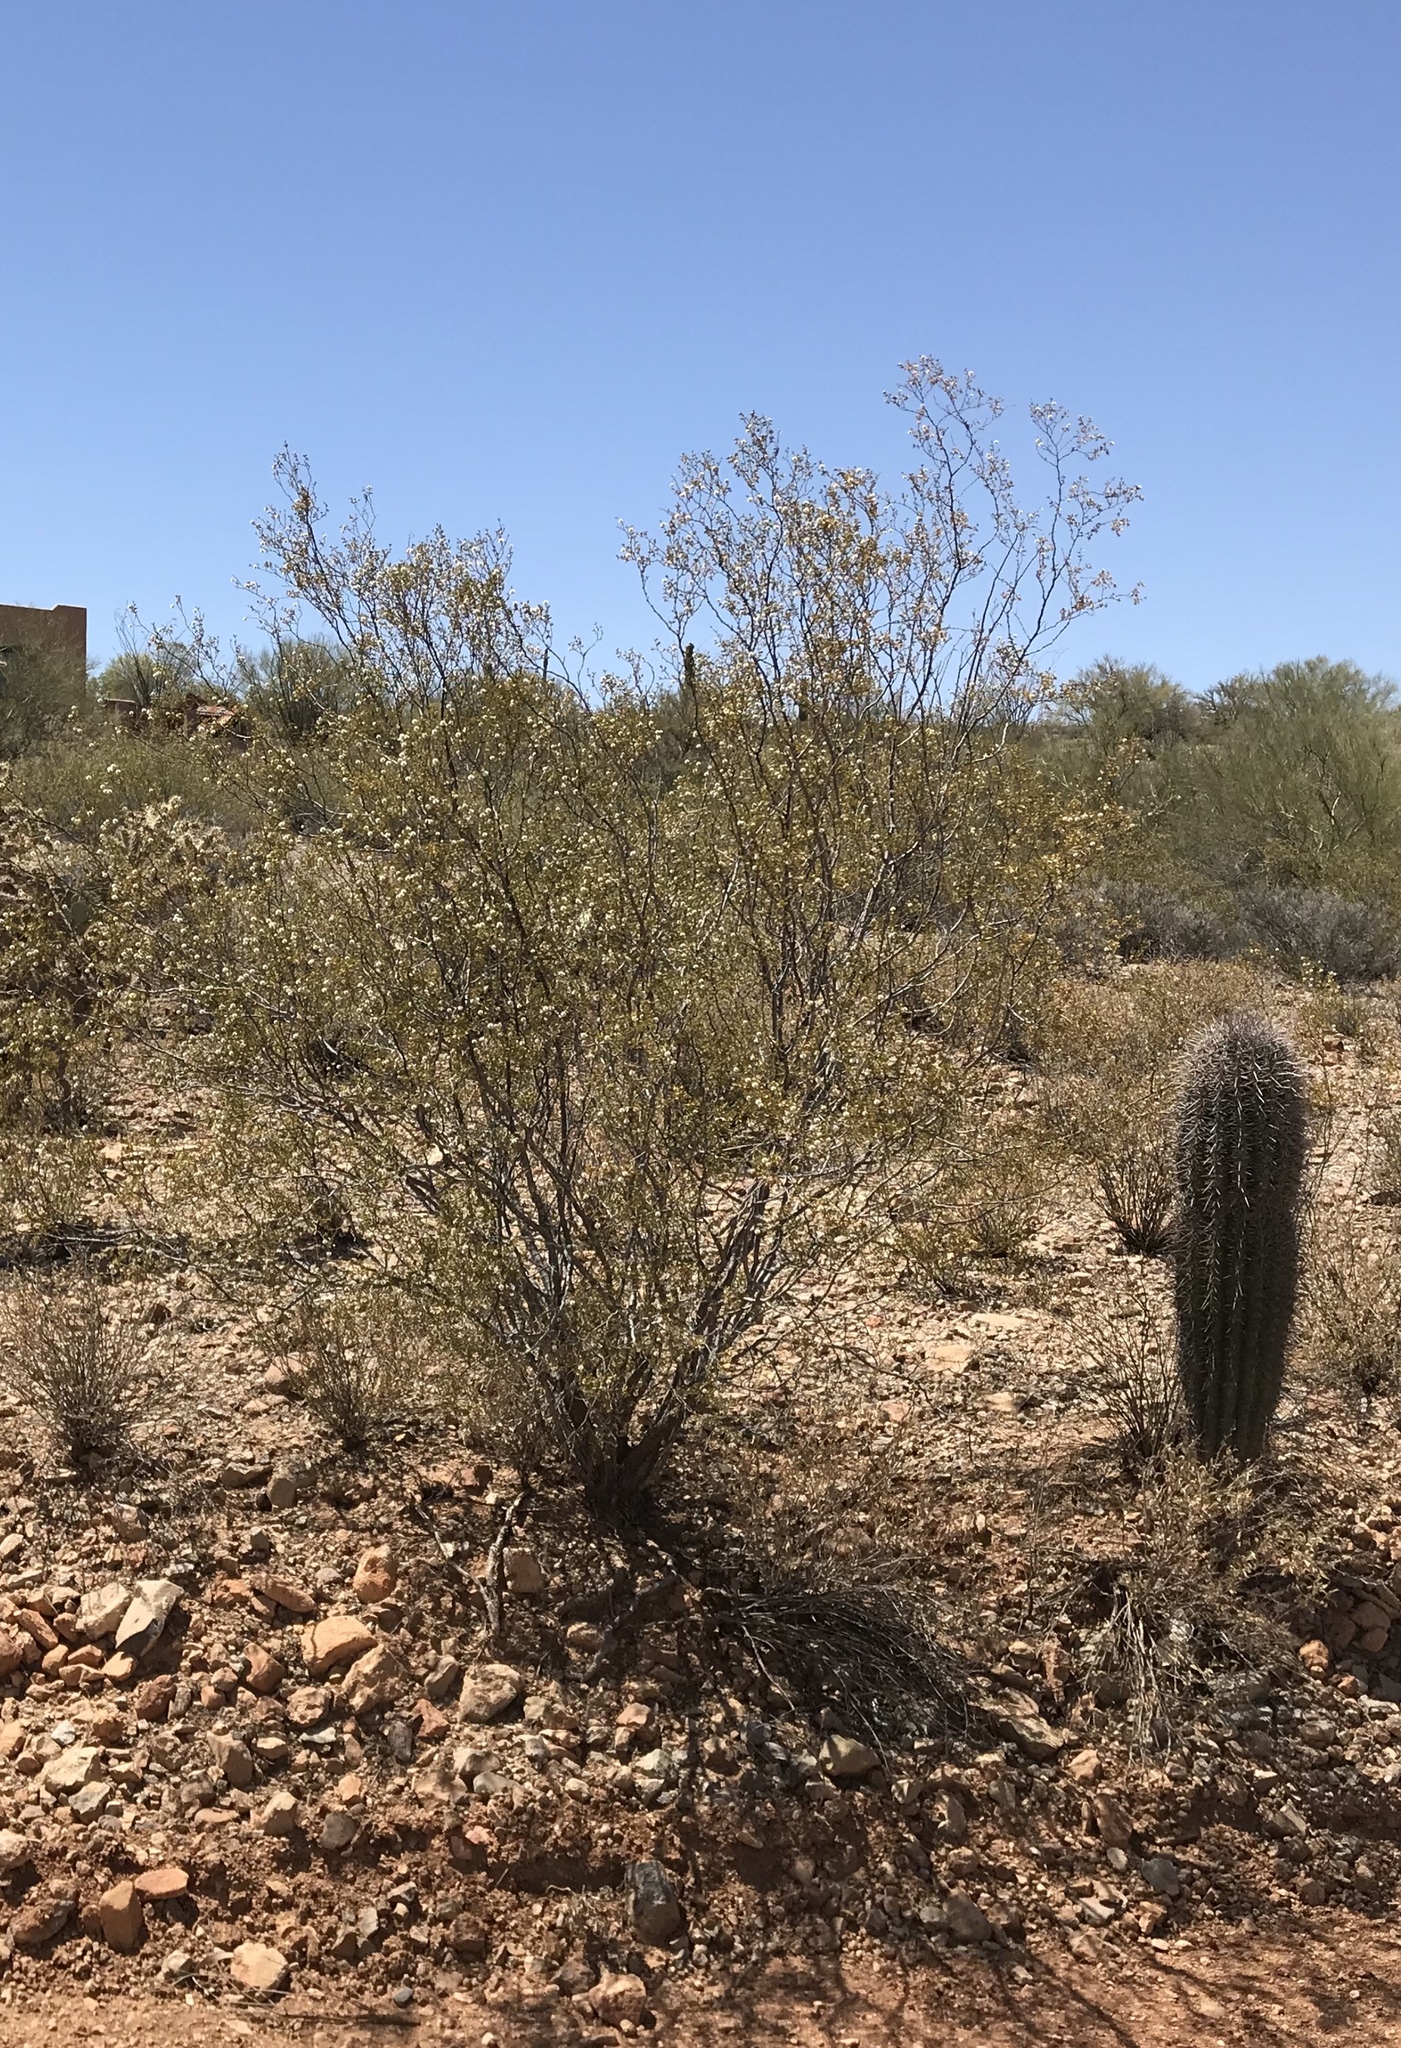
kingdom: Plantae
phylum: Tracheophyta
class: Magnoliopsida
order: Zygophyllales
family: Zygophyllaceae
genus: Larrea
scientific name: Larrea tridentata
